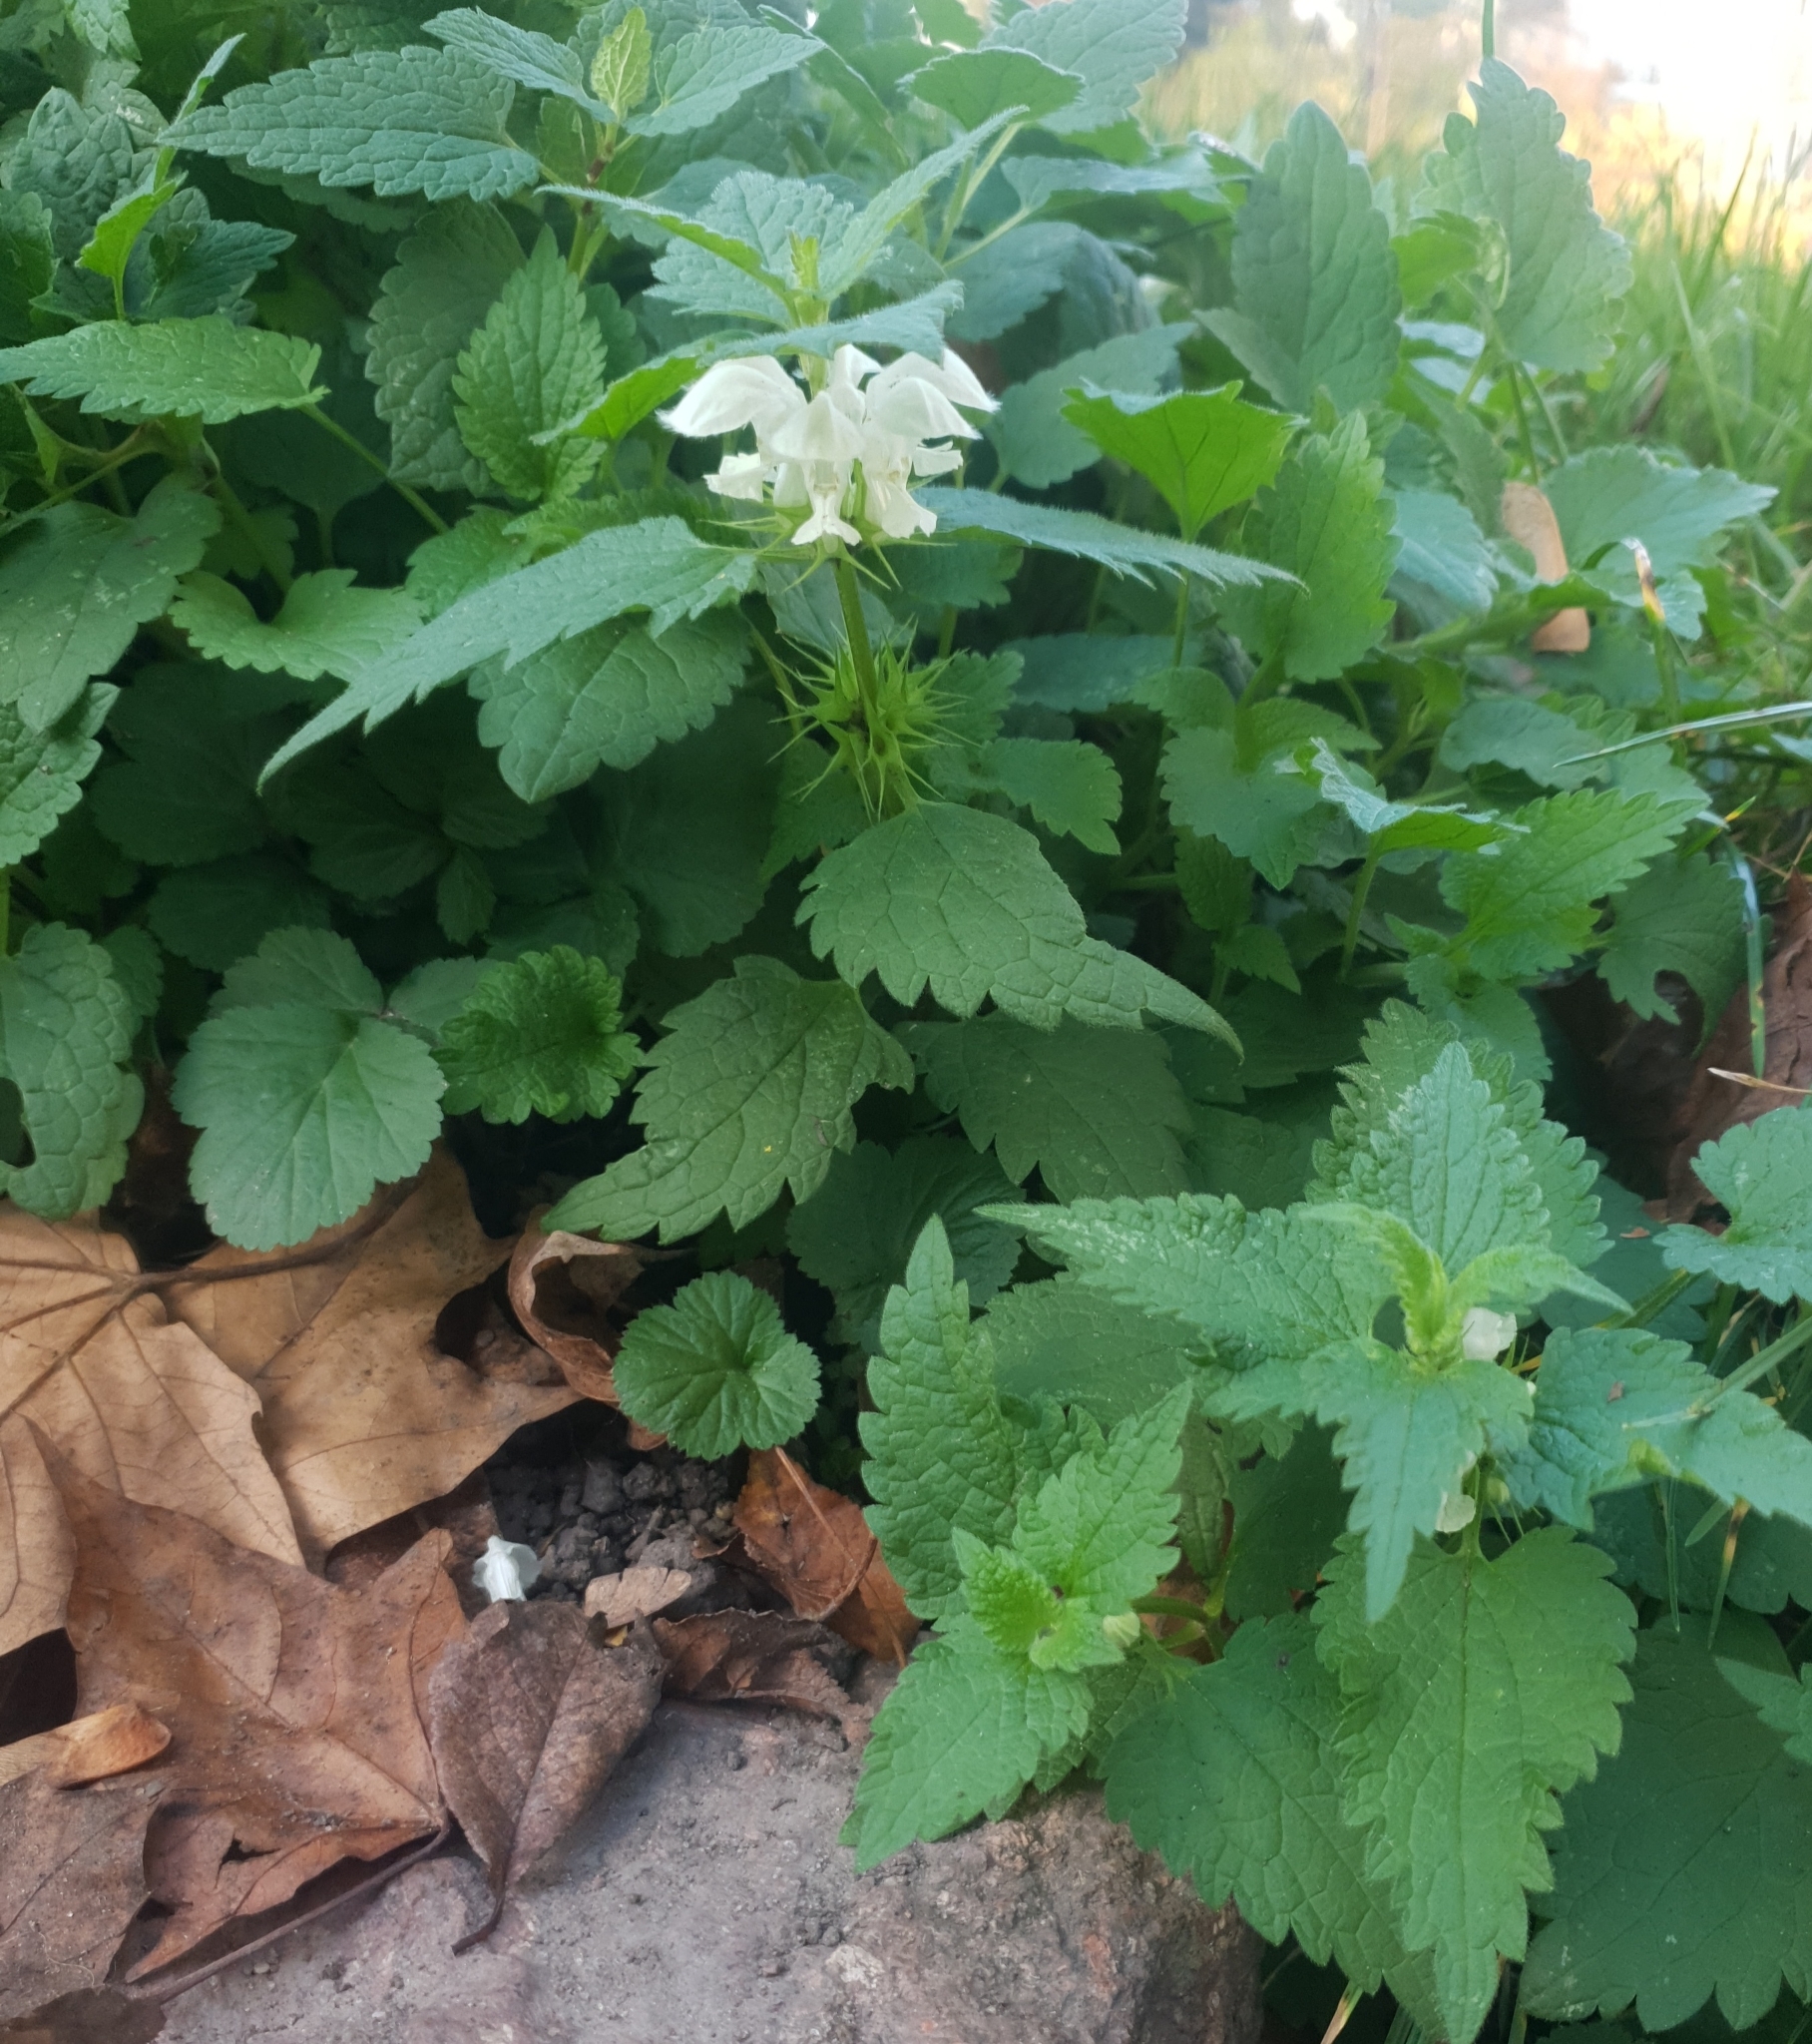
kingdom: Plantae
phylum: Tracheophyta
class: Magnoliopsida
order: Lamiales
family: Lamiaceae
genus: Lamium
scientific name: Lamium album
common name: White dead-nettle
